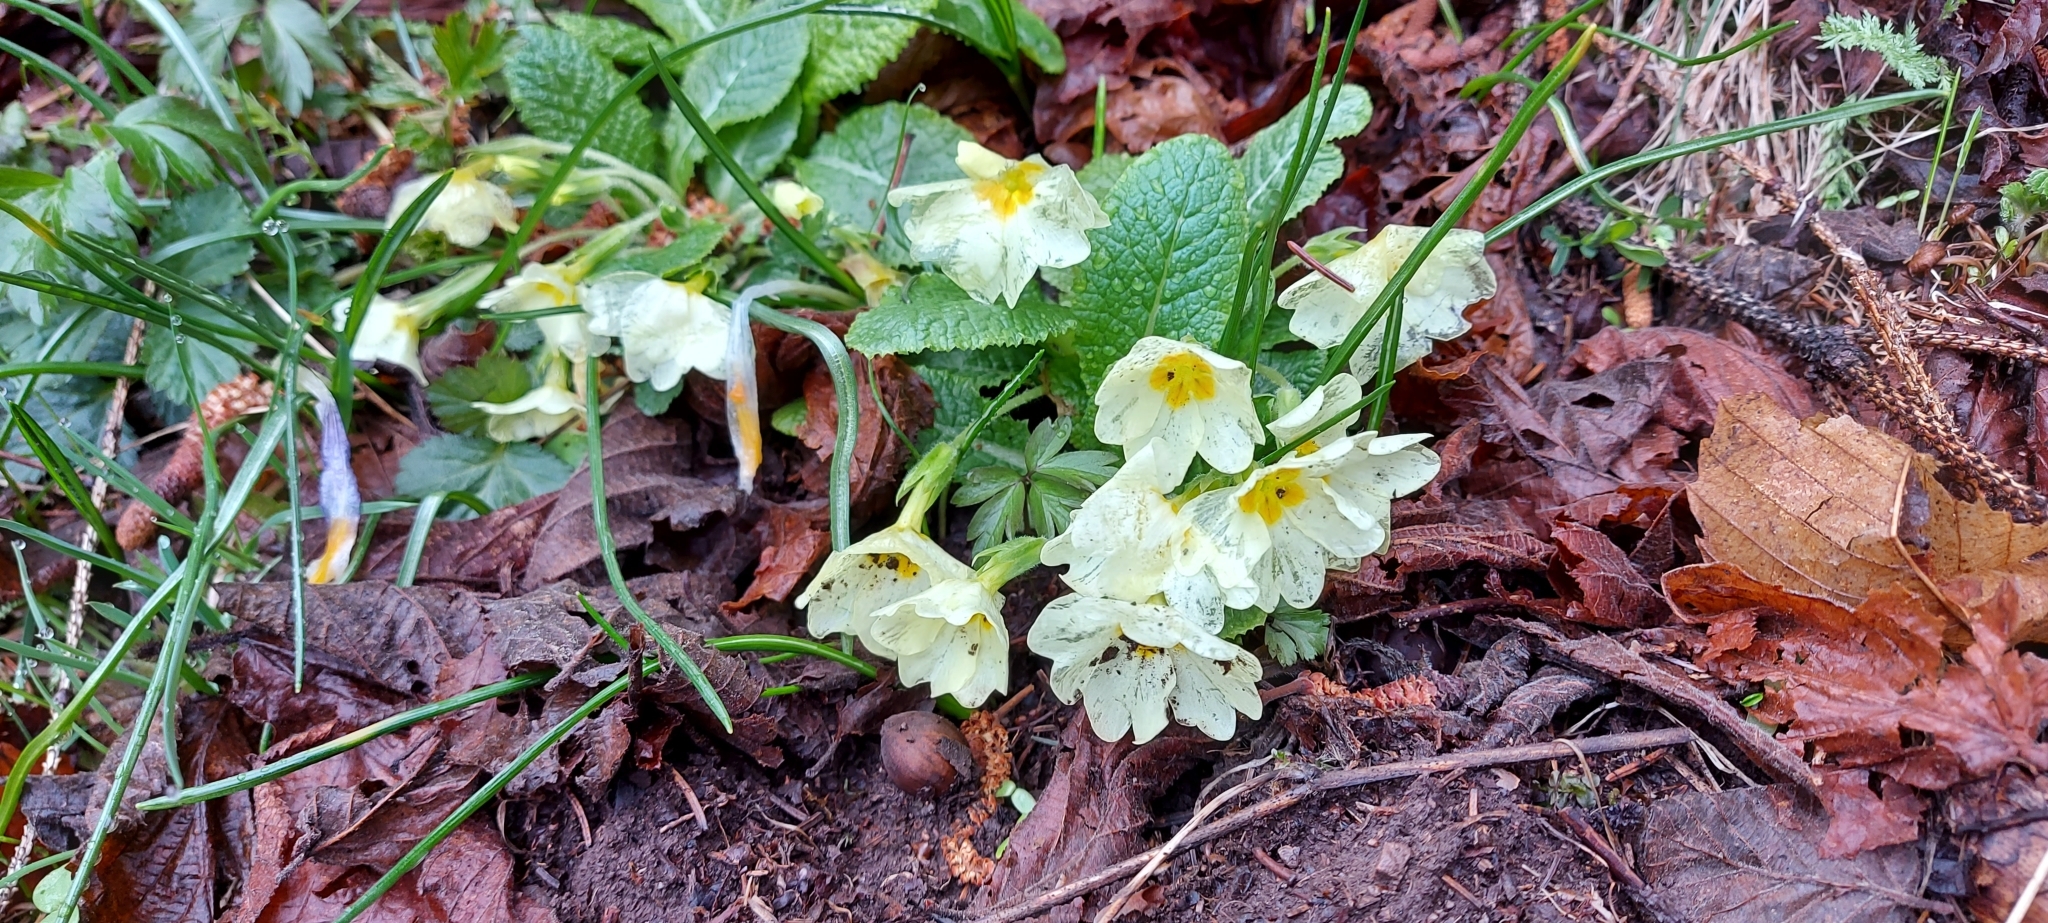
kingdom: Plantae
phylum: Tracheophyta
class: Magnoliopsida
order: Ericales
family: Primulaceae
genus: Primula
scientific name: Primula vulgaris
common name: Primrose
